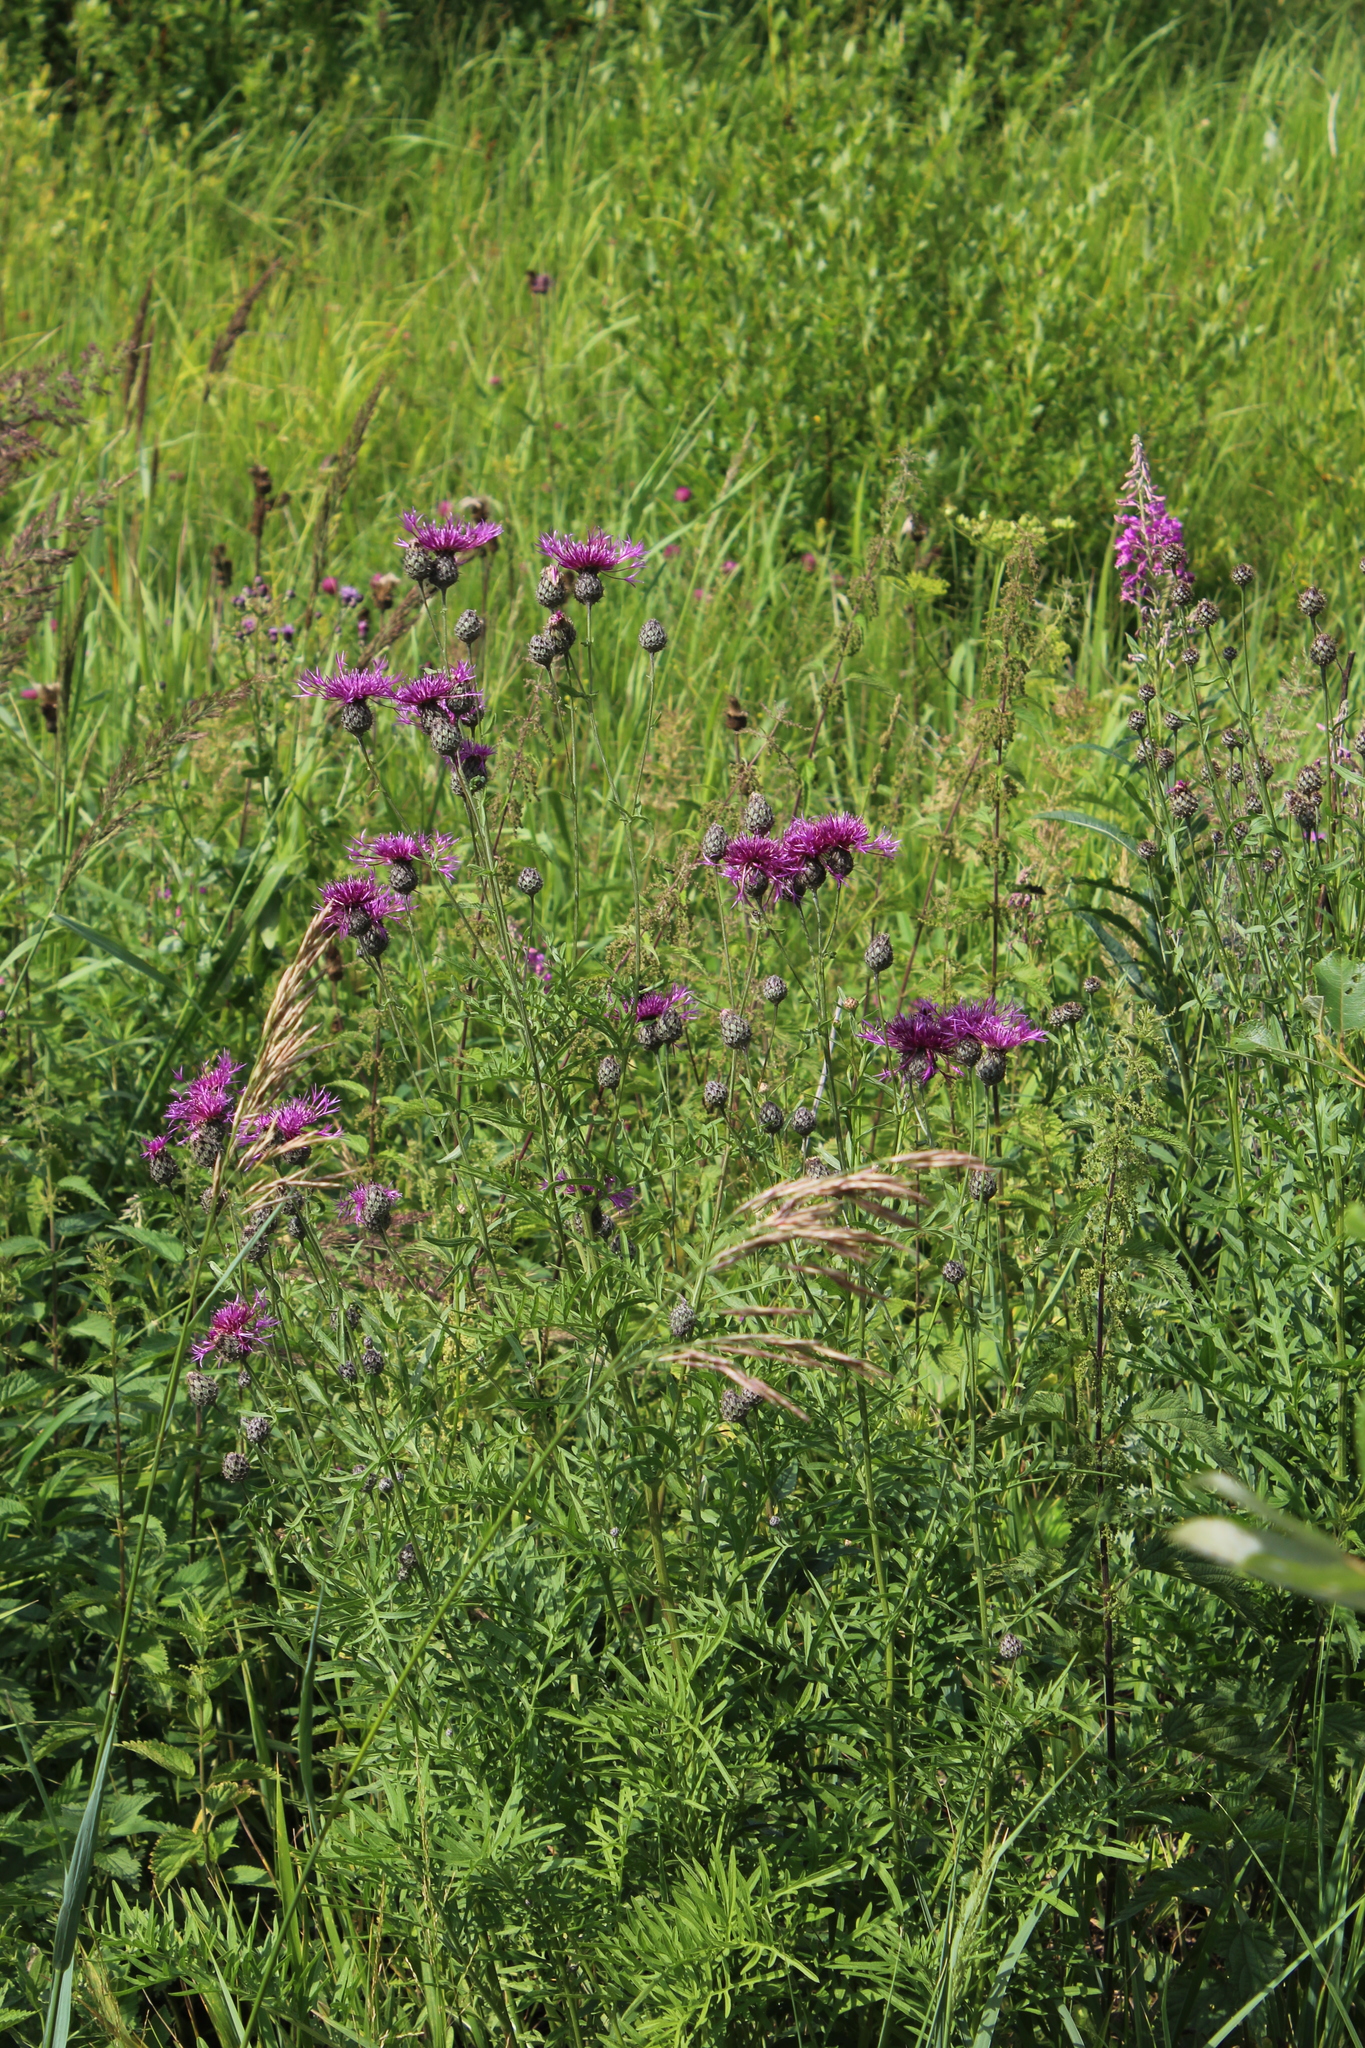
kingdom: Plantae
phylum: Tracheophyta
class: Magnoliopsida
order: Asterales
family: Asteraceae
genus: Centaurea
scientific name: Centaurea scabiosa
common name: Greater knapweed
